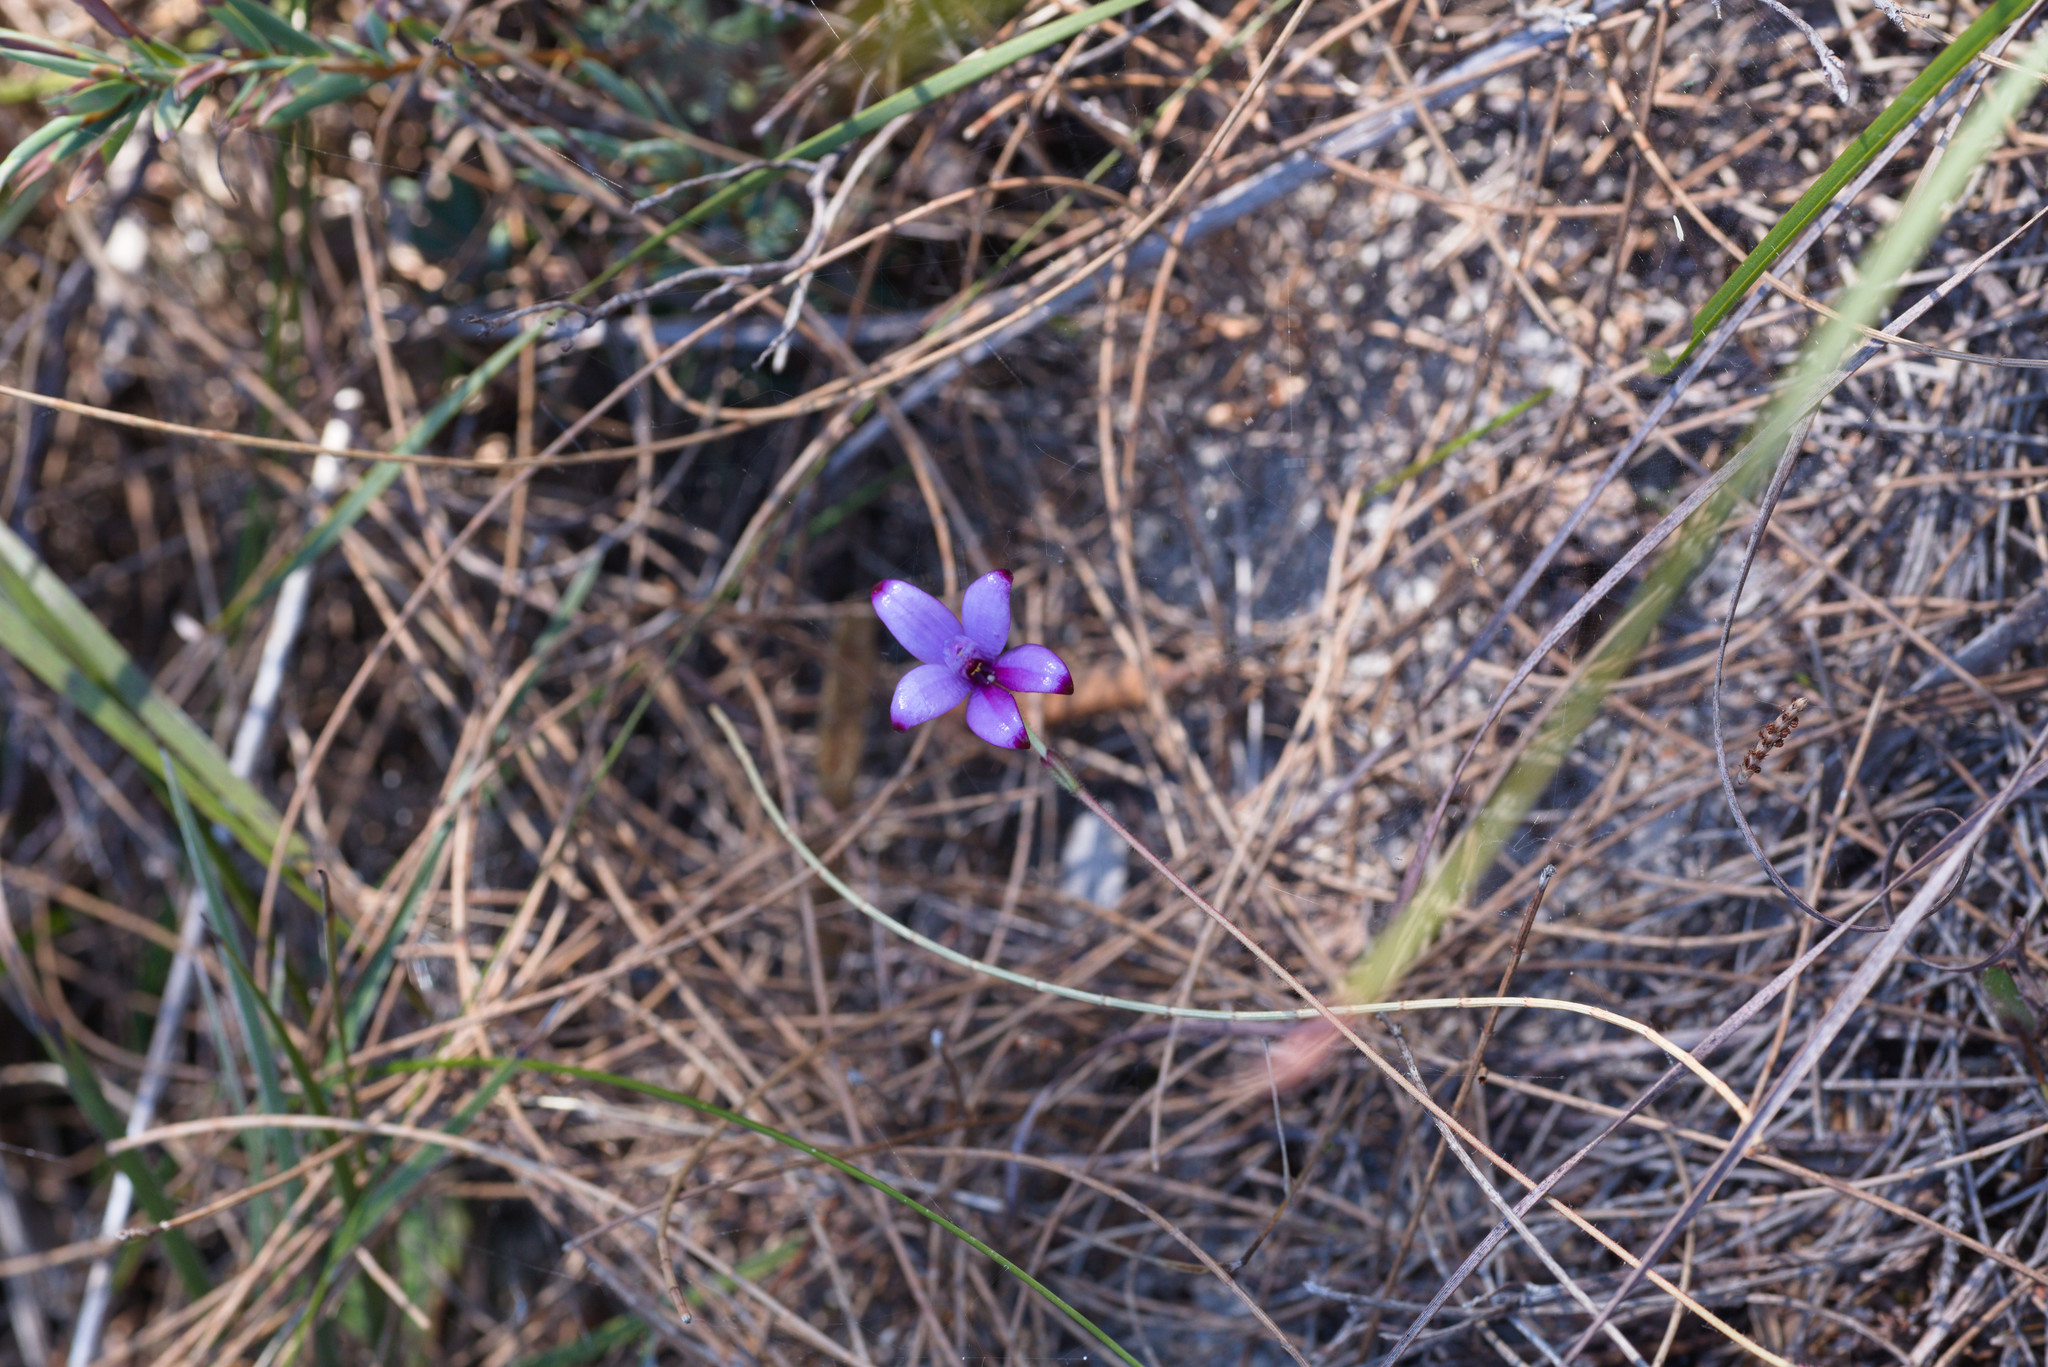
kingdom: Plantae
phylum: Tracheophyta
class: Liliopsida
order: Asparagales
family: Orchidaceae
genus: Caladenia
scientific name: Caladenia brunonis
